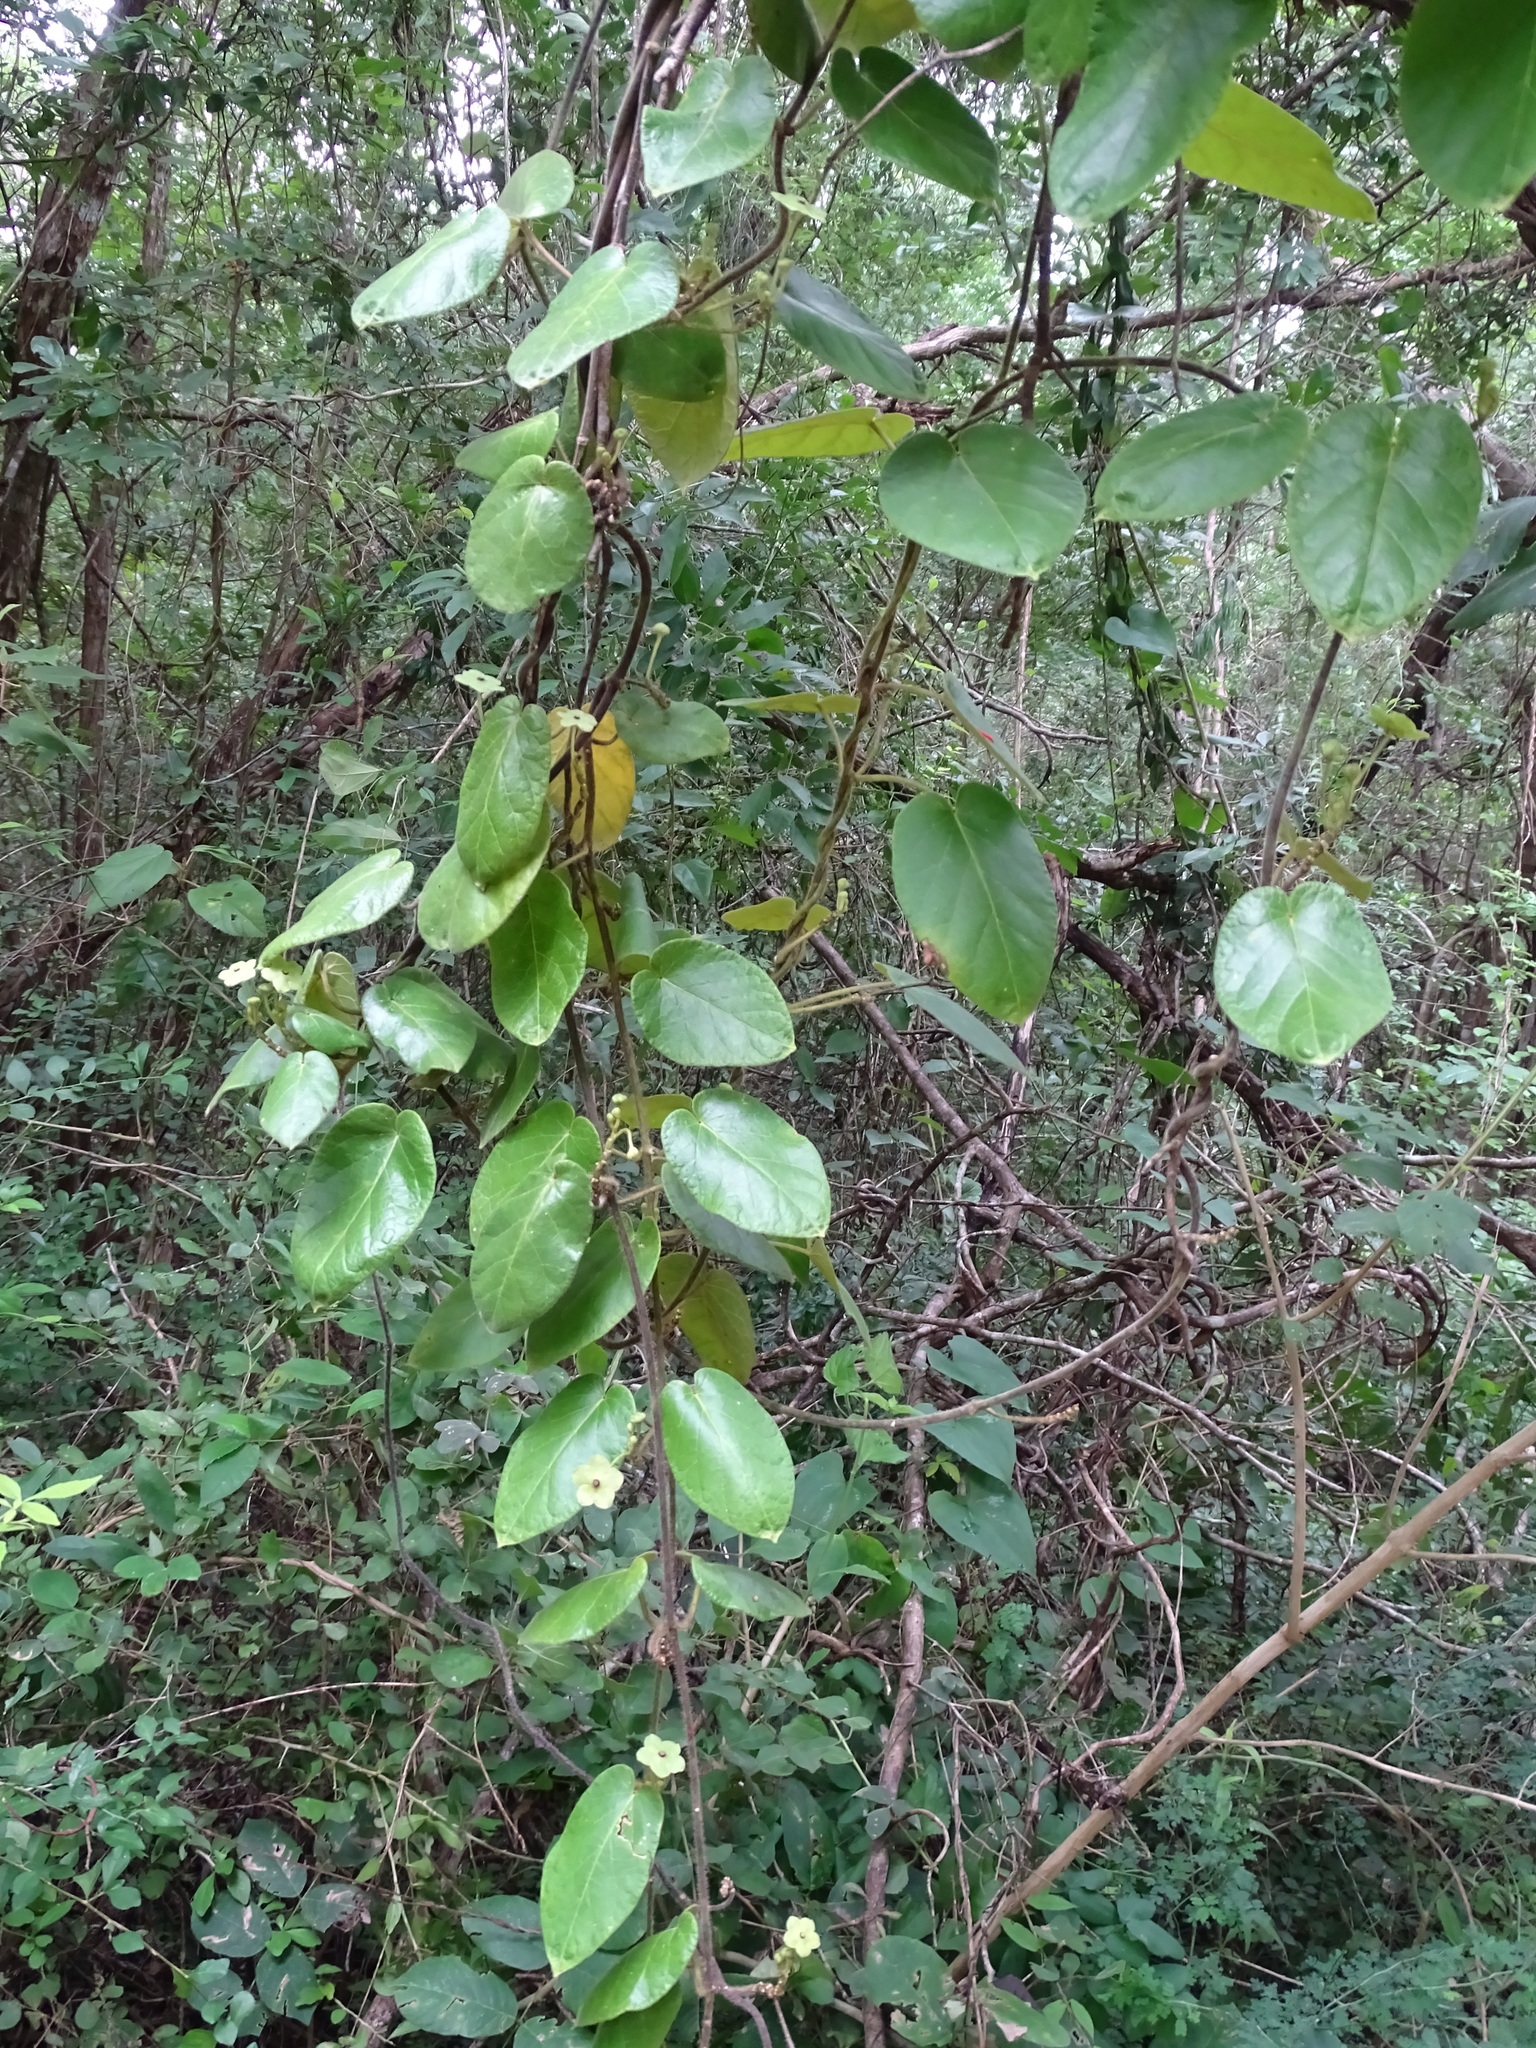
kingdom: Plantae
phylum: Tracheophyta
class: Magnoliopsida
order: Gentianales
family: Apocynaceae
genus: Matelea
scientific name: Matelea gentlei
